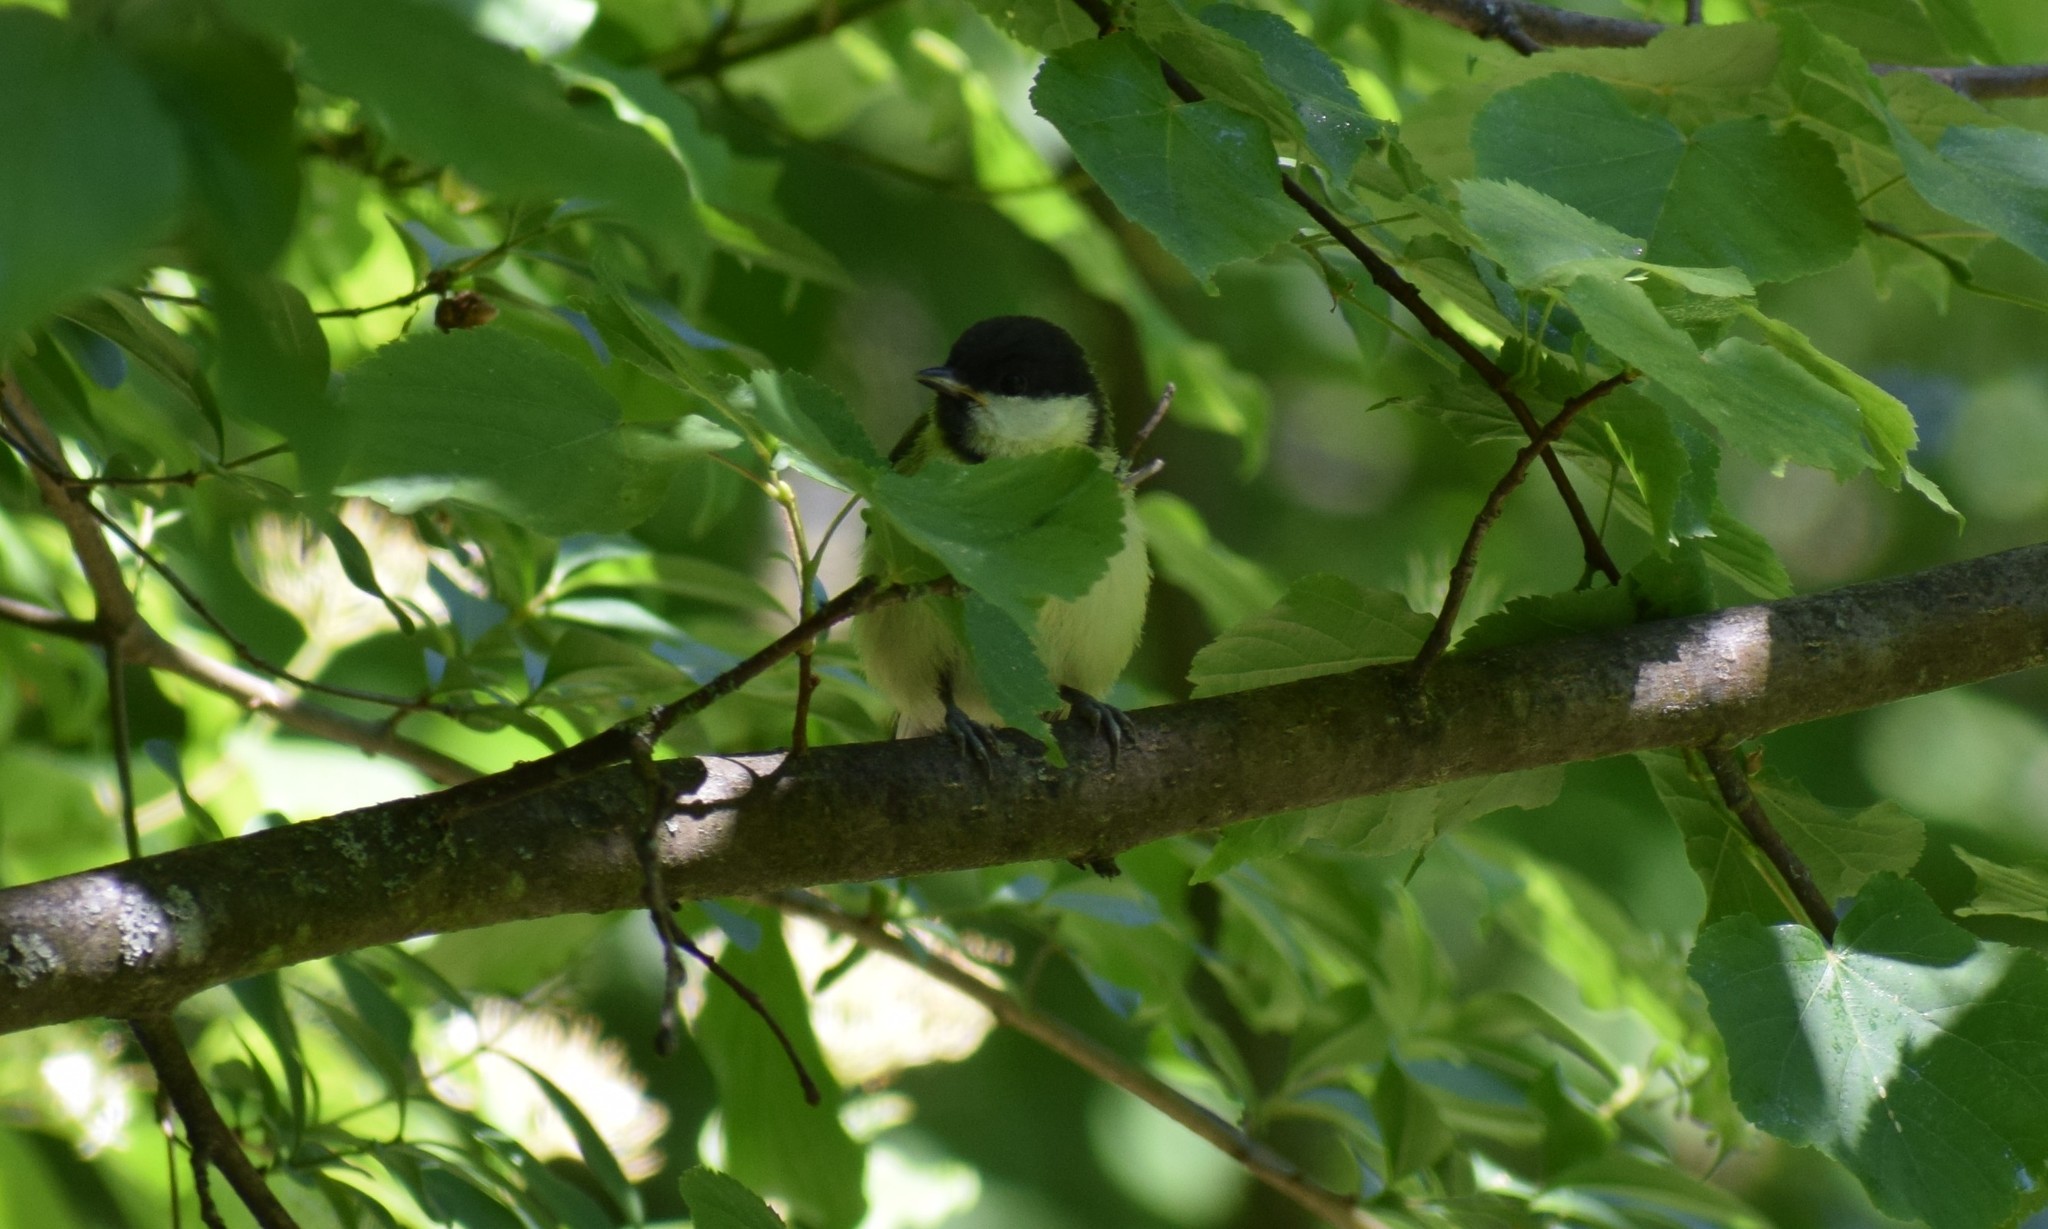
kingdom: Animalia
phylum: Chordata
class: Aves
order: Passeriformes
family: Paridae
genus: Parus
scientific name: Parus major
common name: Great tit
